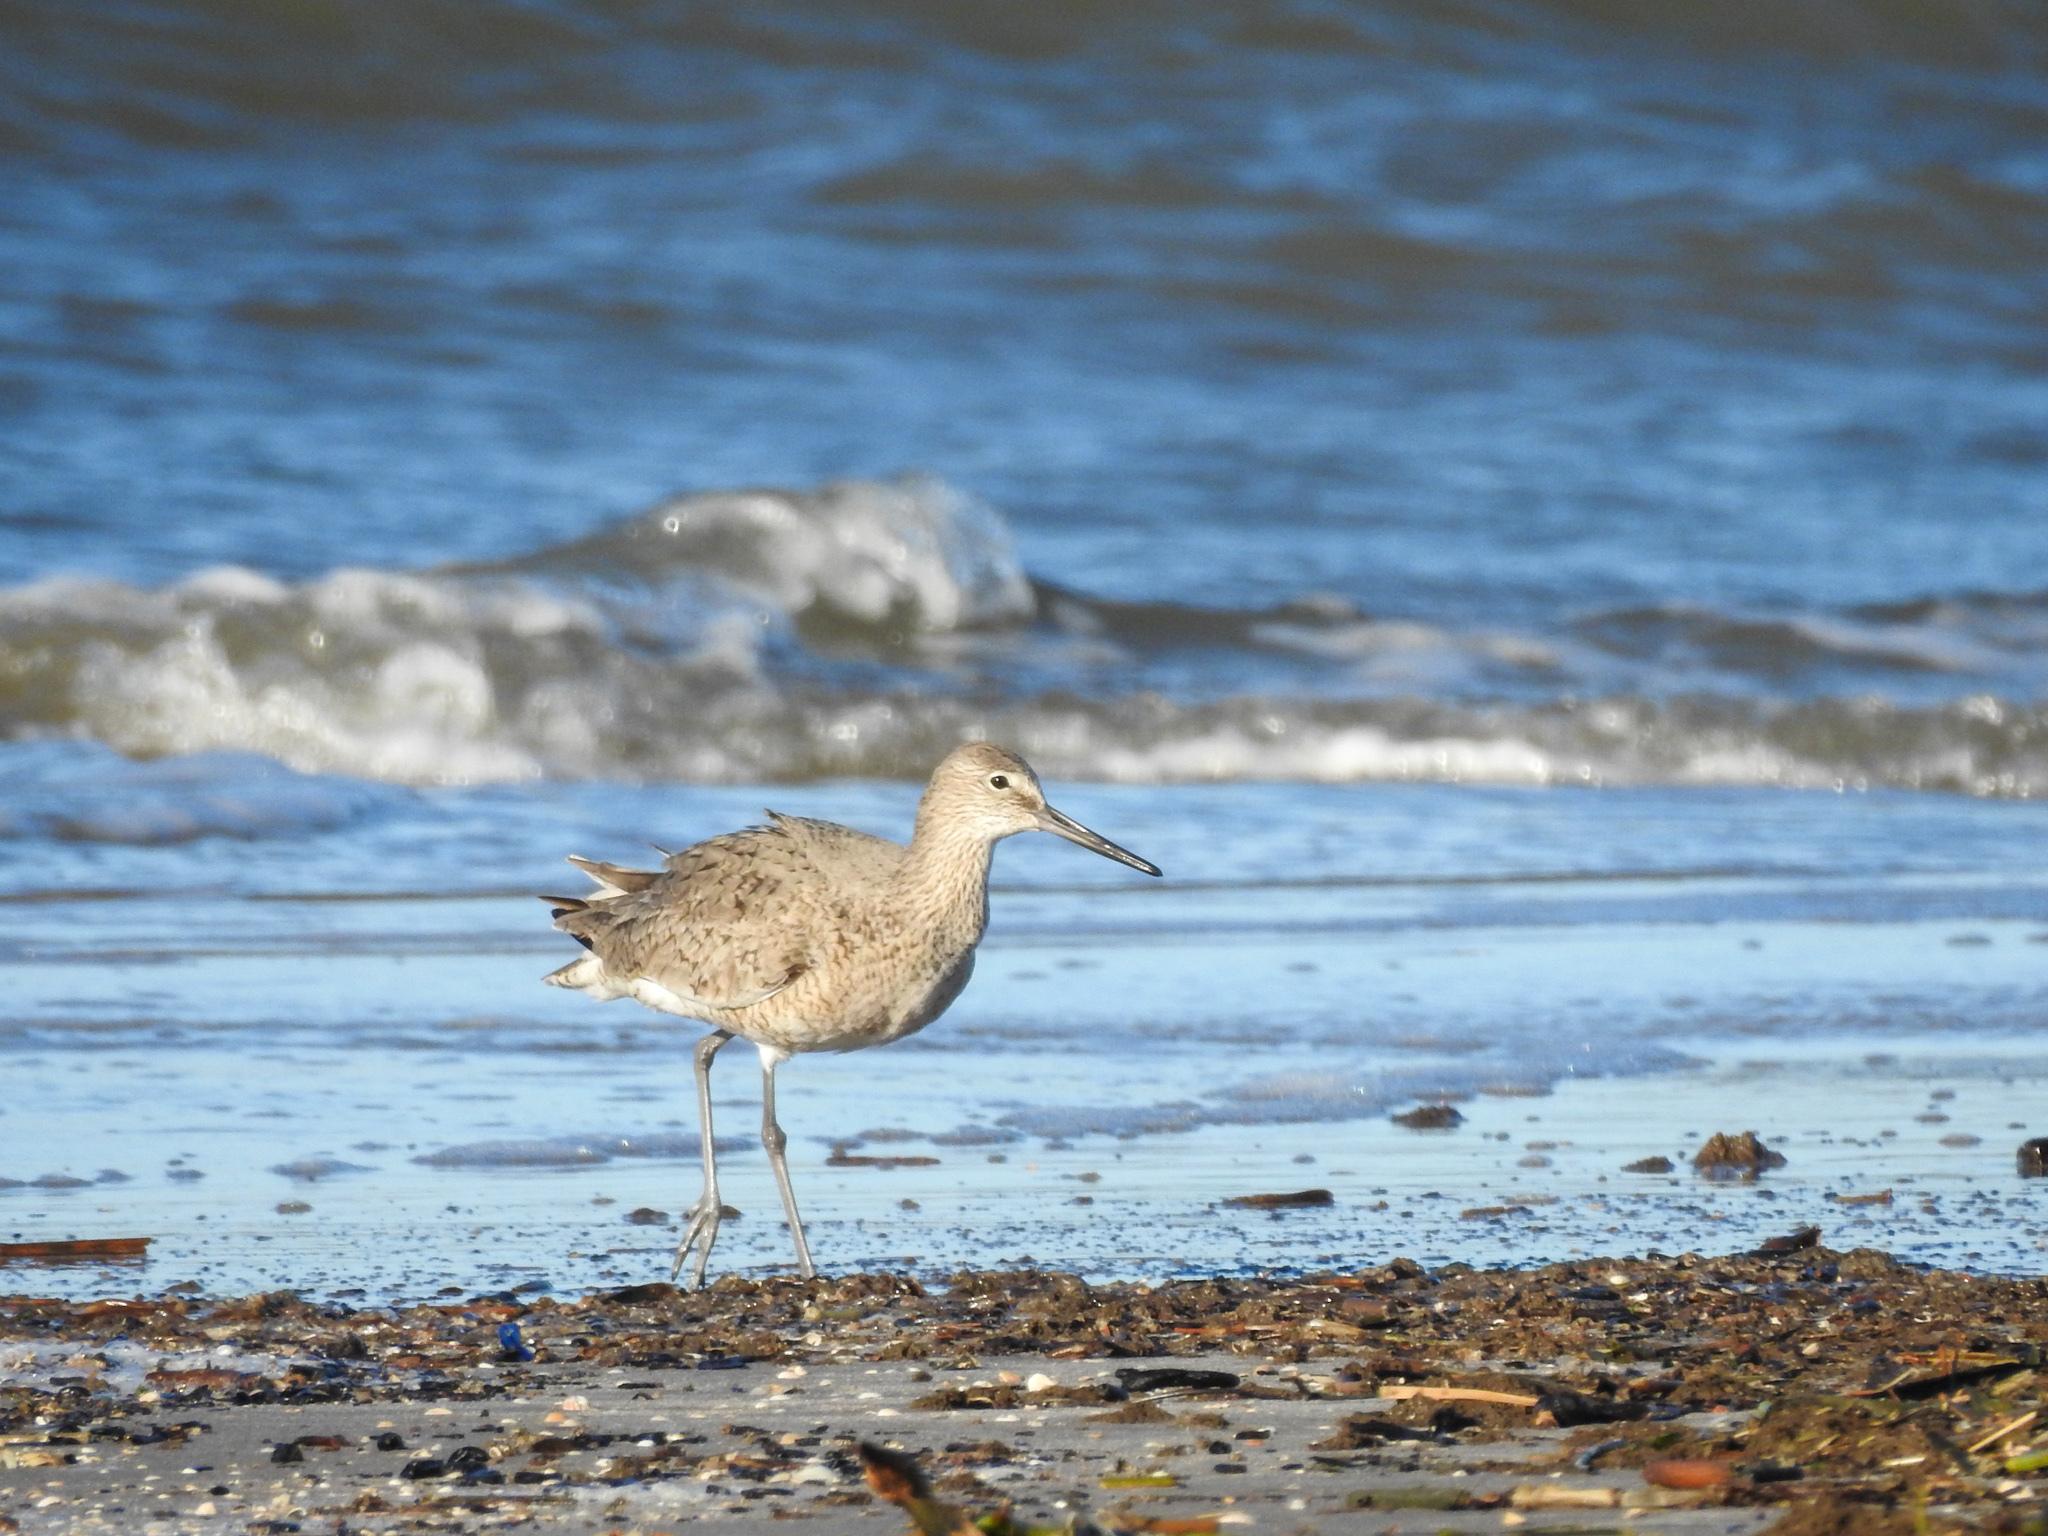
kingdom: Animalia
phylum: Chordata
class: Aves
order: Charadriiformes
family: Scolopacidae
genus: Tringa
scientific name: Tringa semipalmata
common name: Willet
